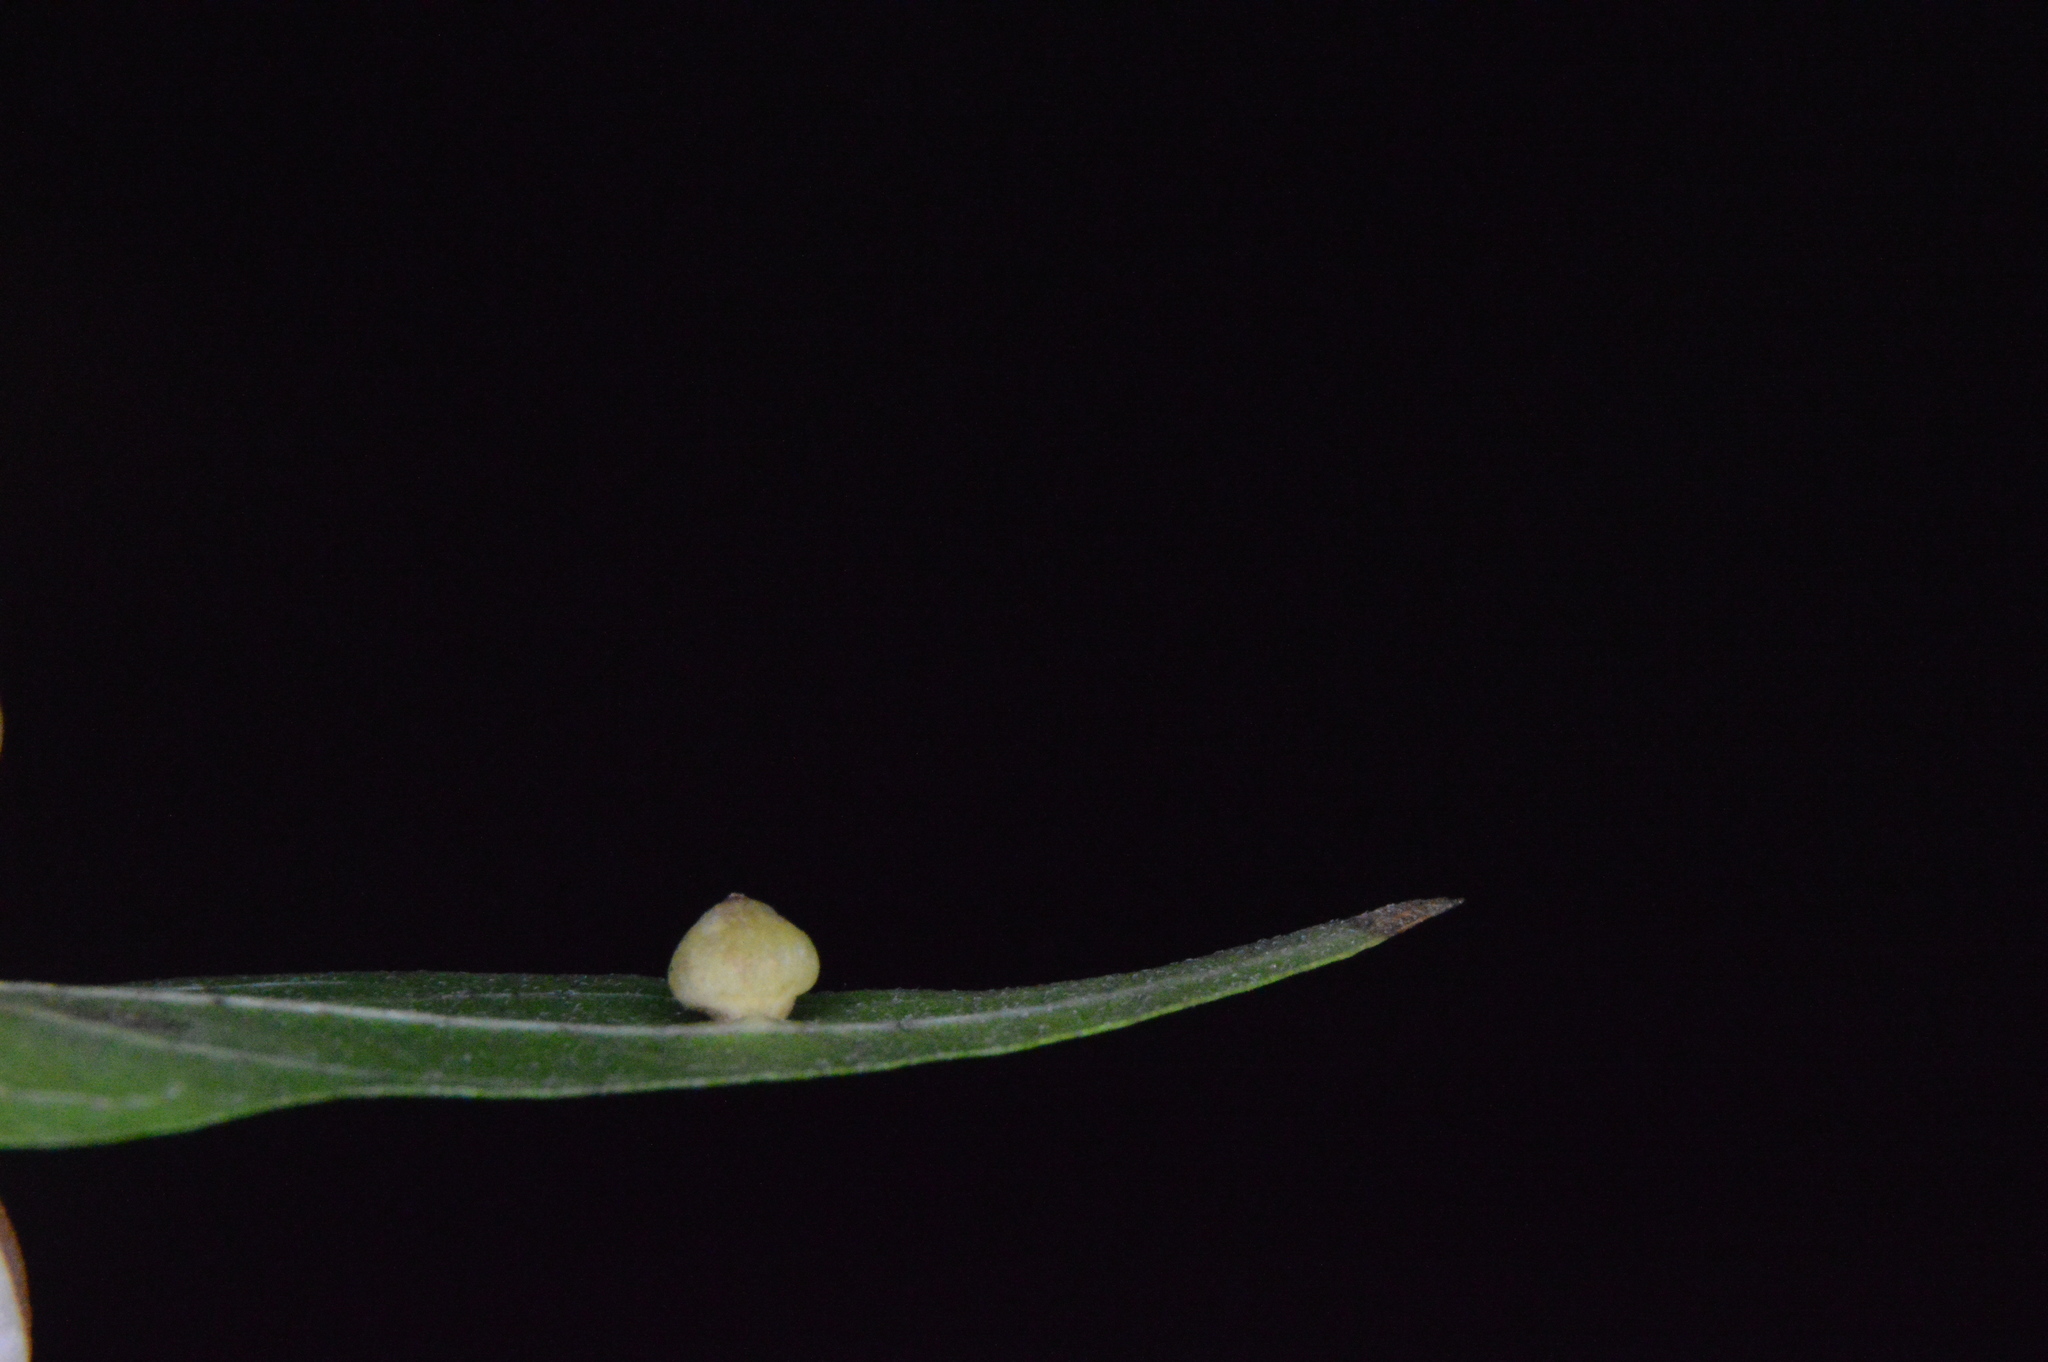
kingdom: Animalia
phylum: Arthropoda
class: Insecta
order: Diptera
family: Cecidomyiidae
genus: Celticecis
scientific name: Celticecis globosa
